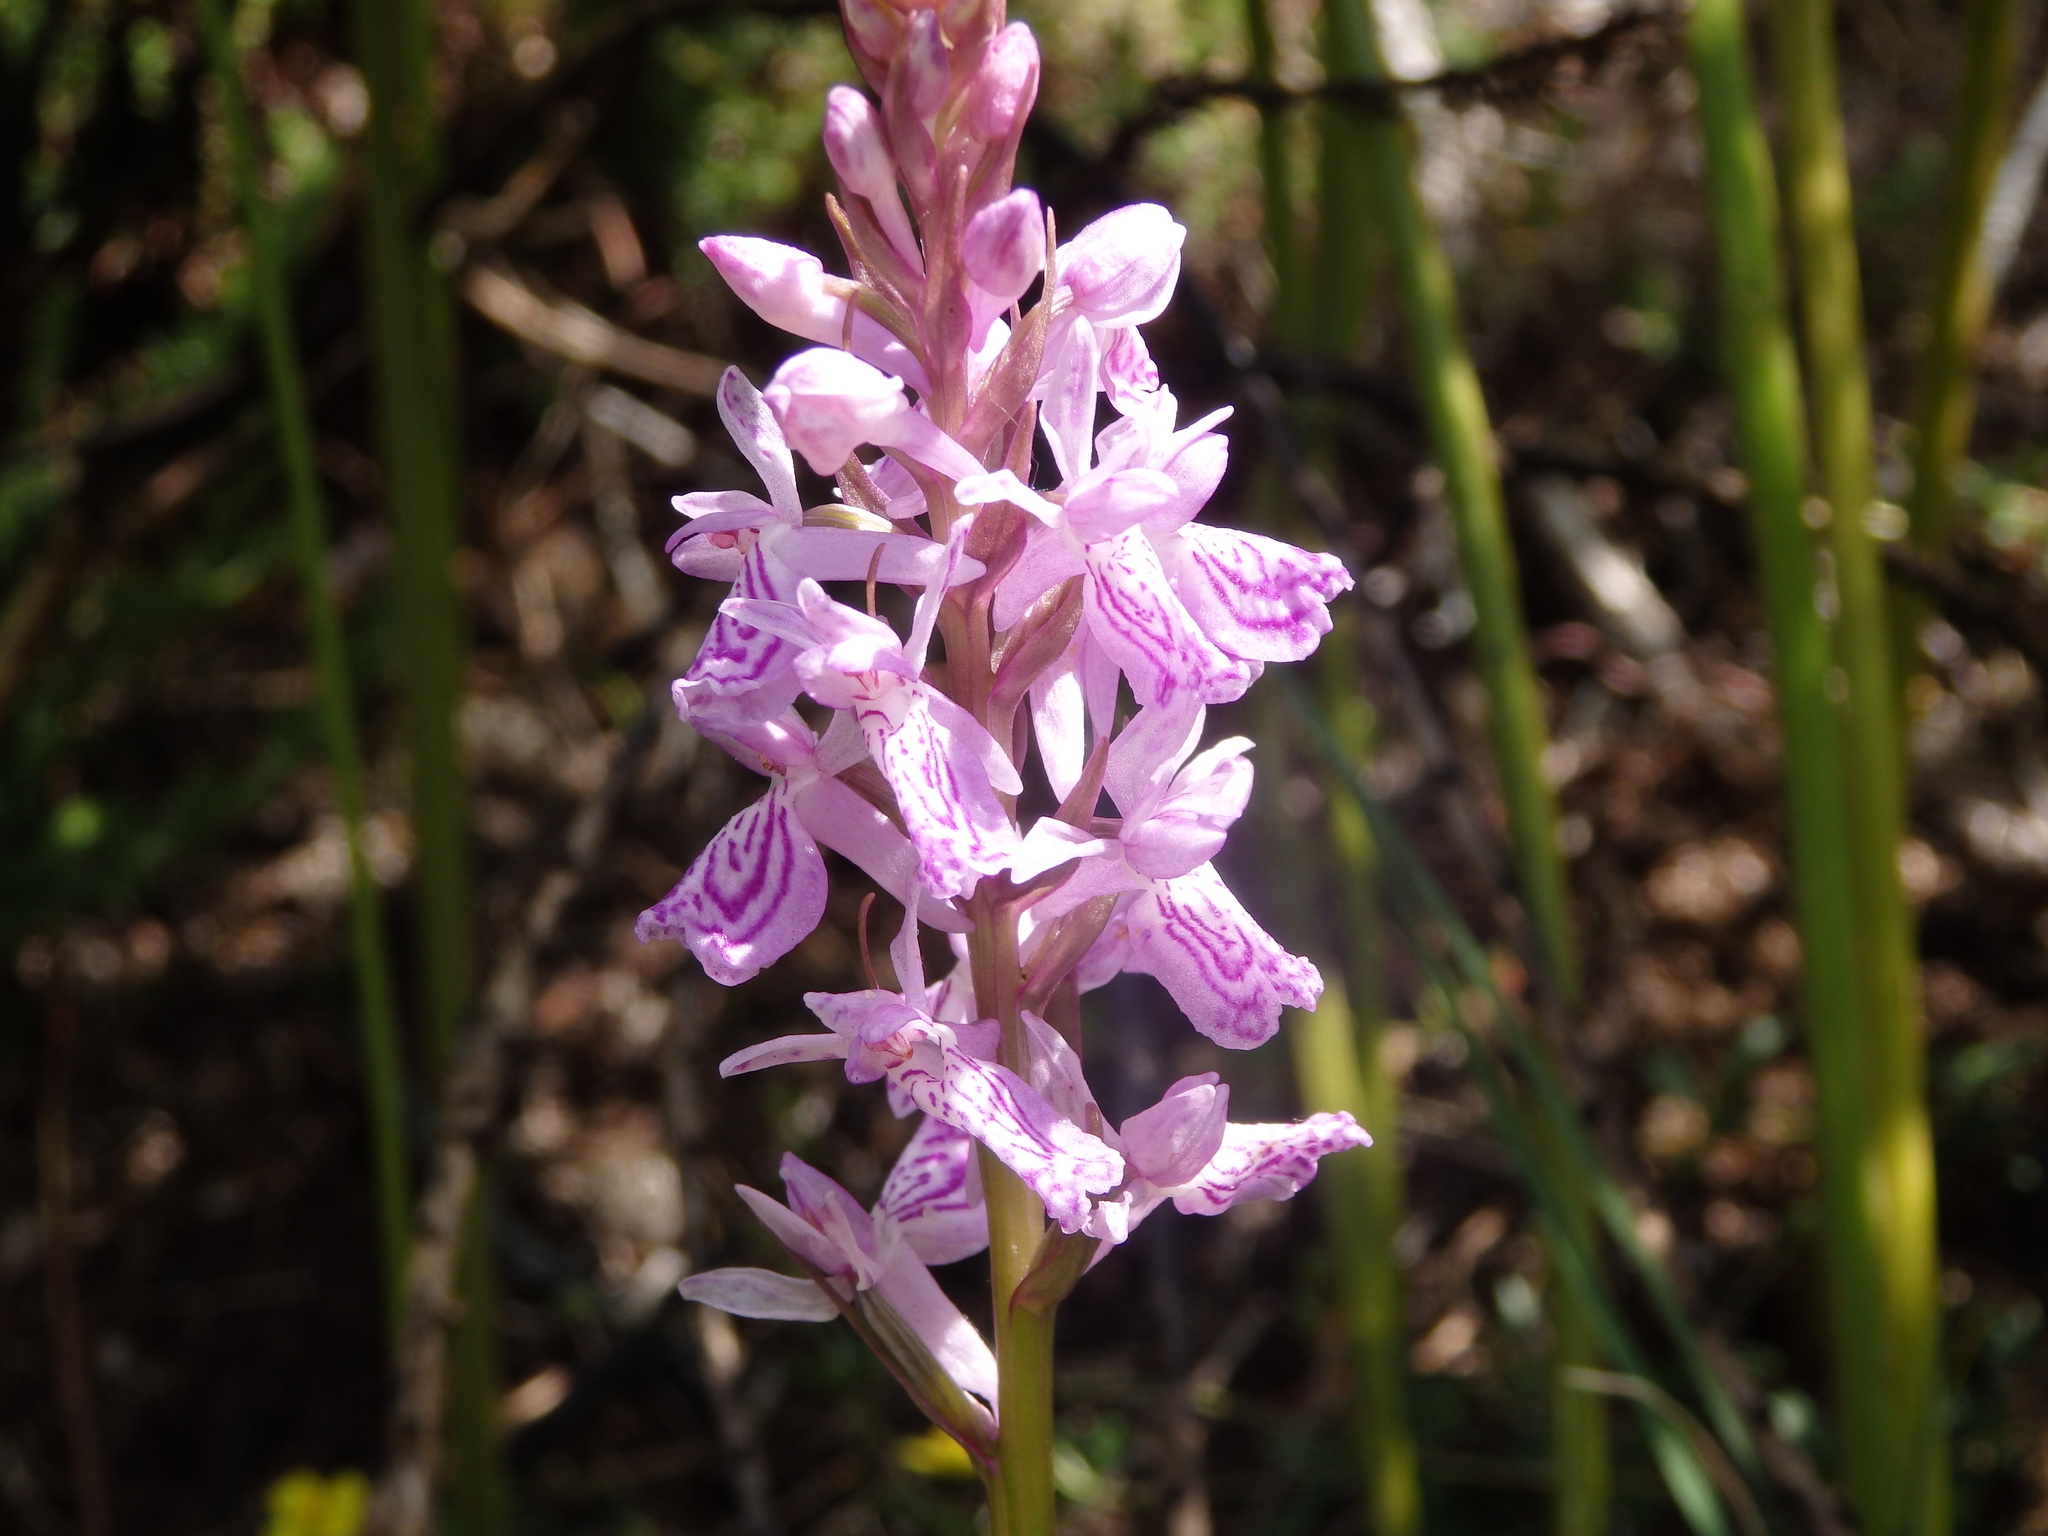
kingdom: Plantae
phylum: Tracheophyta
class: Liliopsida
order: Asparagales
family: Orchidaceae
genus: Dactylorhiza
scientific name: Dactylorhiza maculata
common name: Heath spotted-orchid
